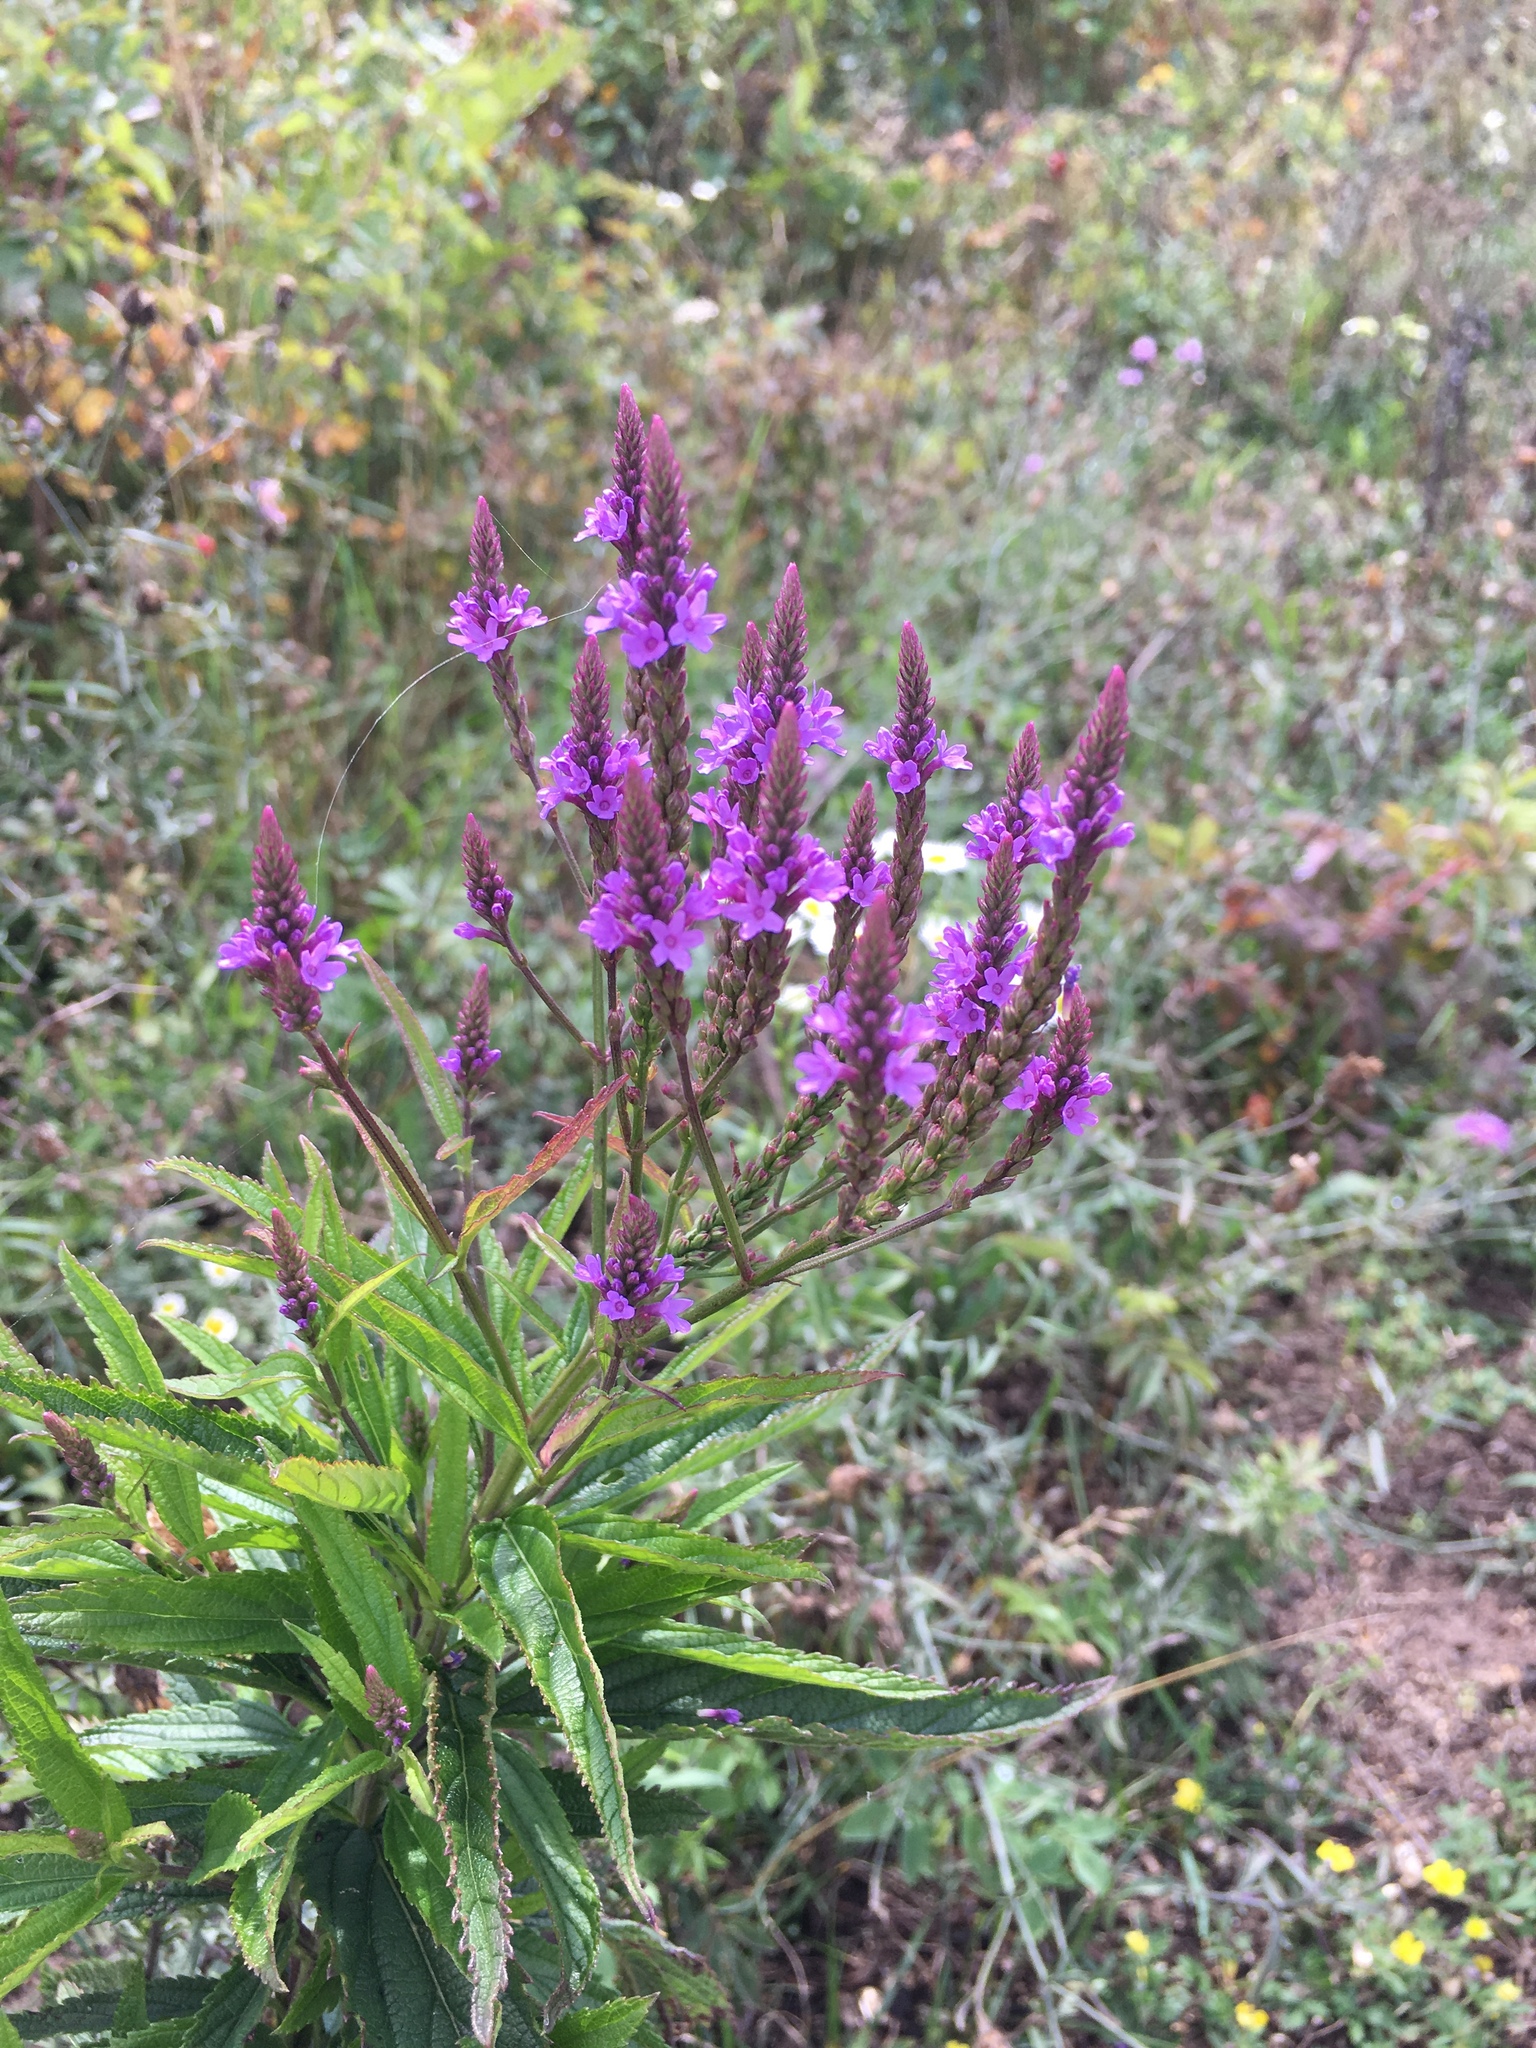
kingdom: Plantae
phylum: Tracheophyta
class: Magnoliopsida
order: Lamiales
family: Verbenaceae
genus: Verbena
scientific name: Verbena hastata
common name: American blue vervain
